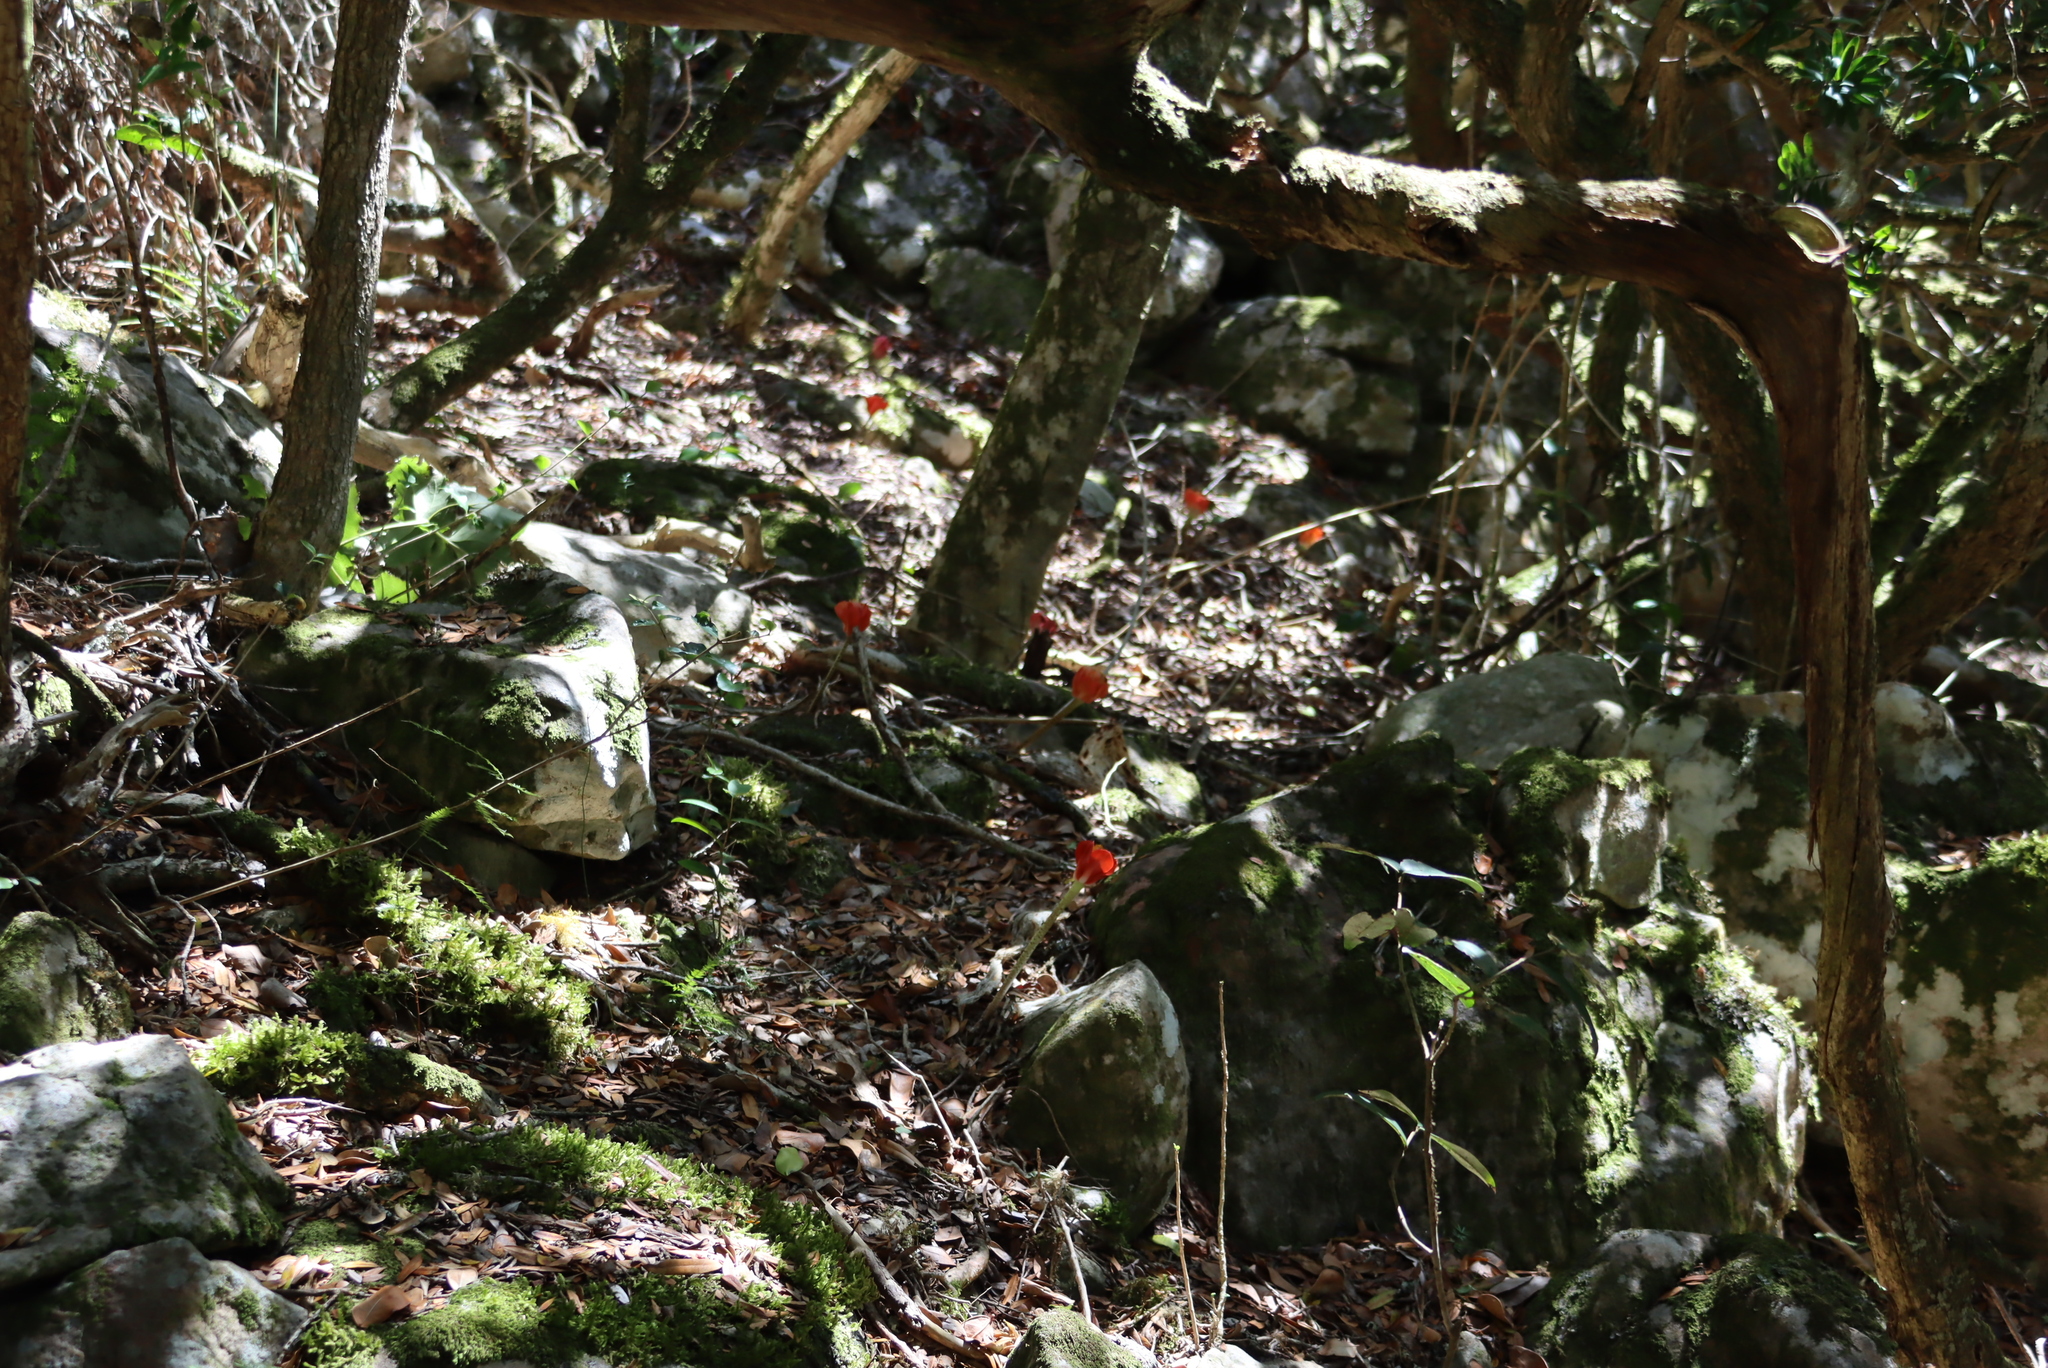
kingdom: Plantae
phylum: Tracheophyta
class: Liliopsida
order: Asparagales
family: Amaryllidaceae
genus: Haemanthus
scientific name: Haemanthus coccineus
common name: Cape-tulip
